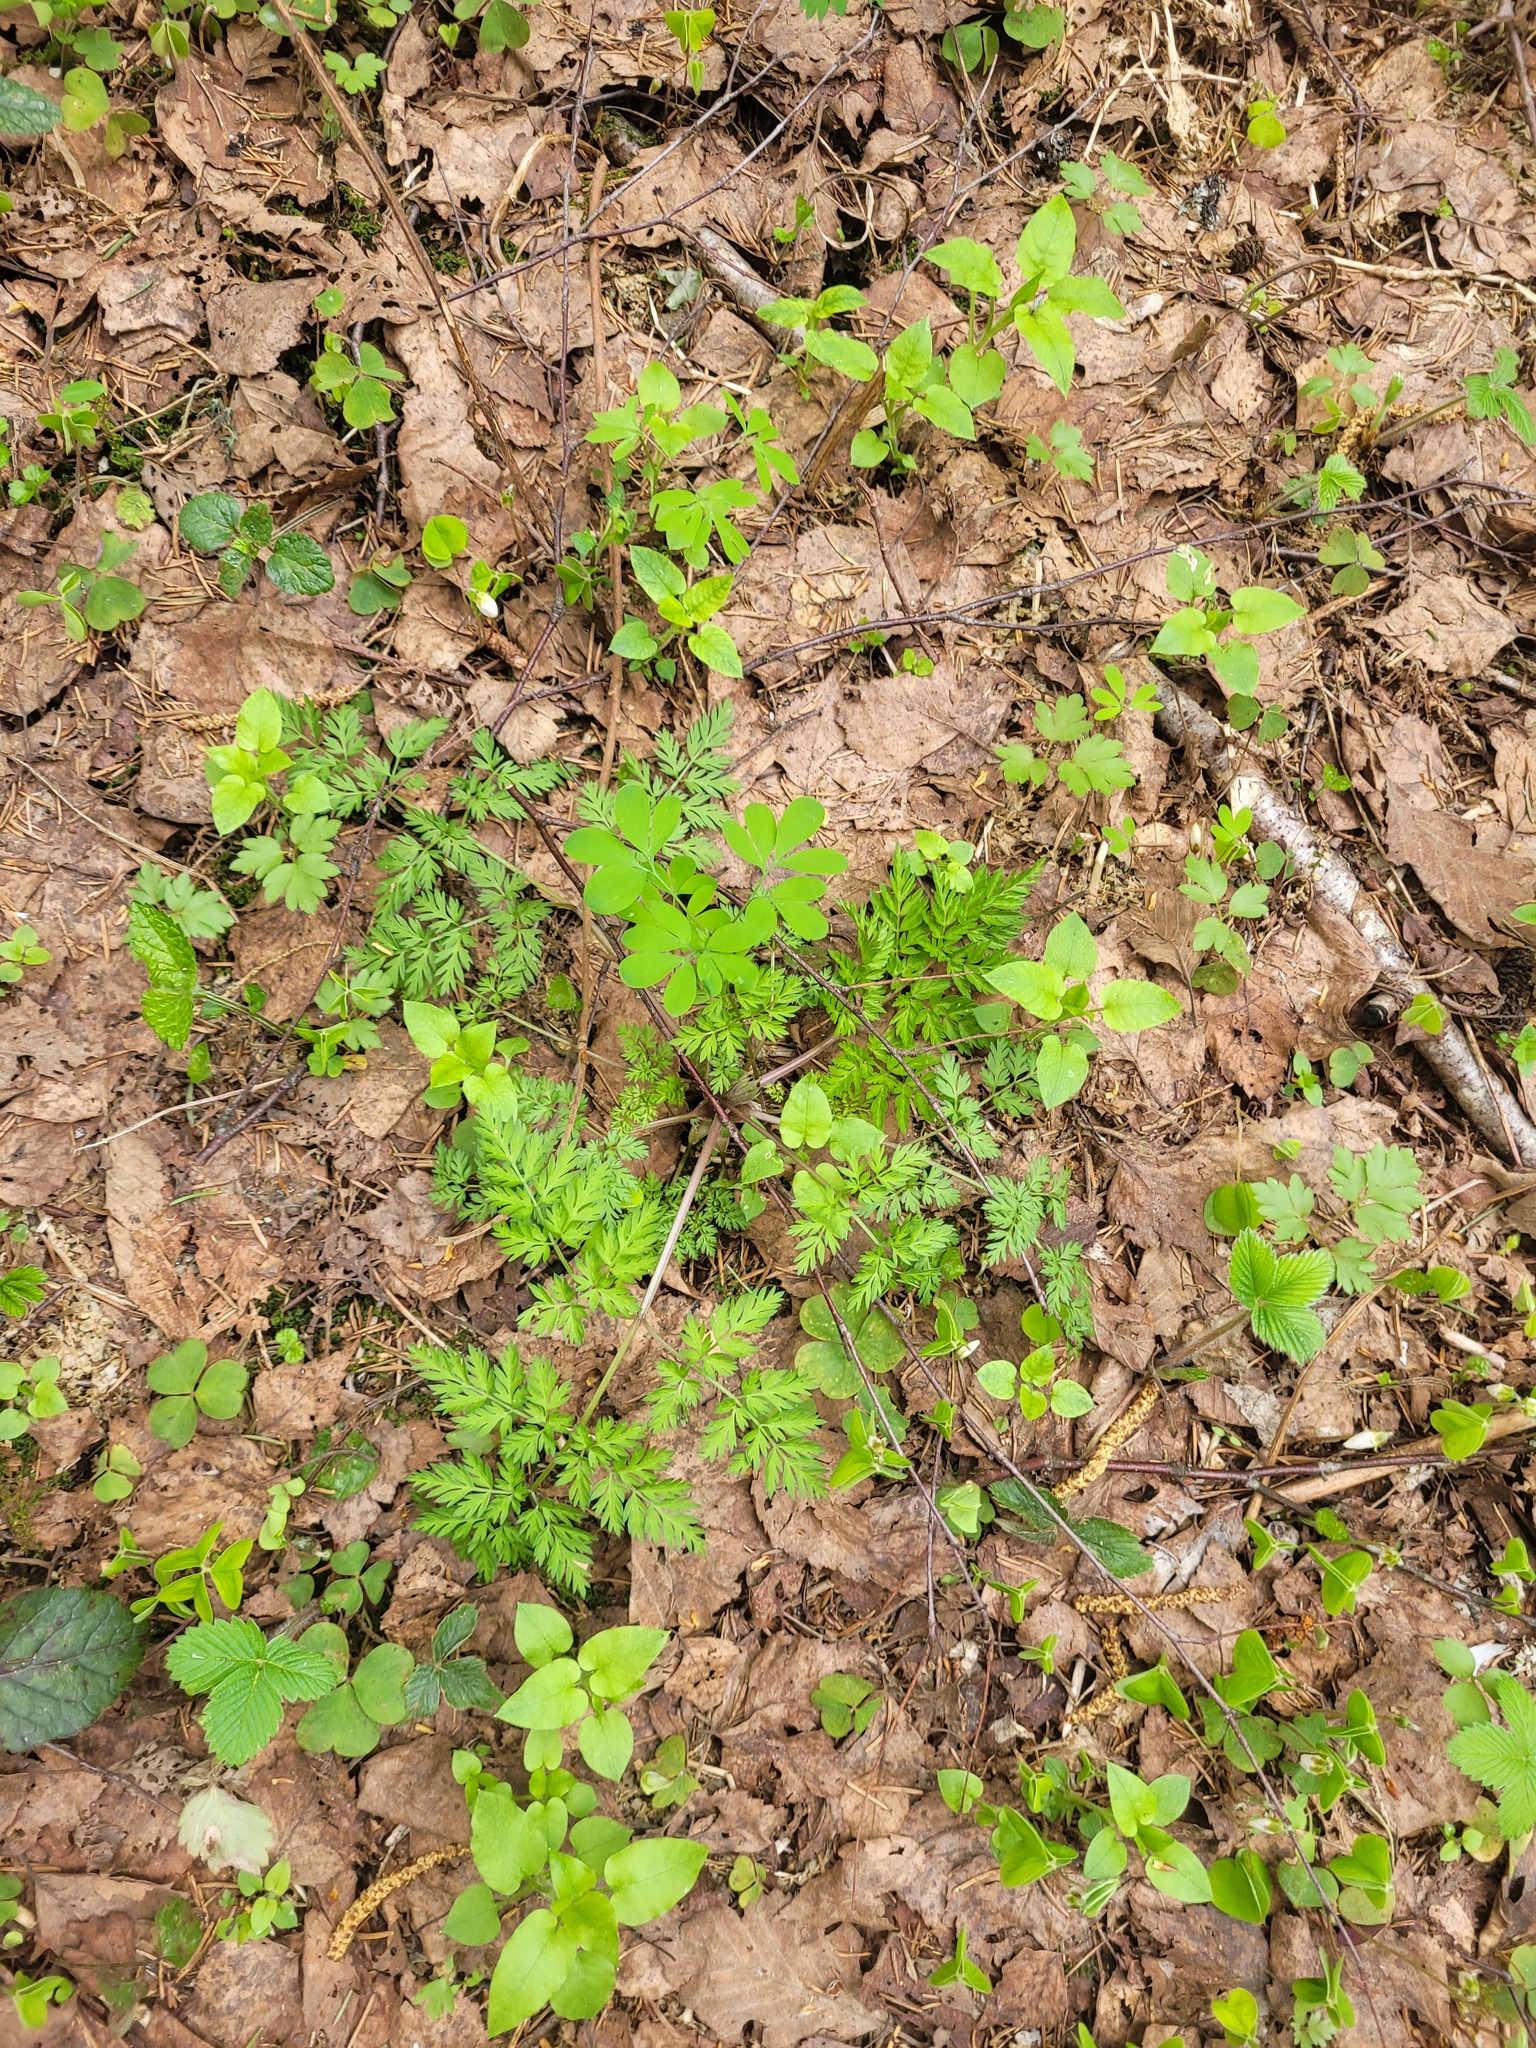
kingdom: Plantae
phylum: Tracheophyta
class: Magnoliopsida
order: Apiales
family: Apiaceae
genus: Anthriscus
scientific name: Anthriscus sylvestris
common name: Cow parsley
